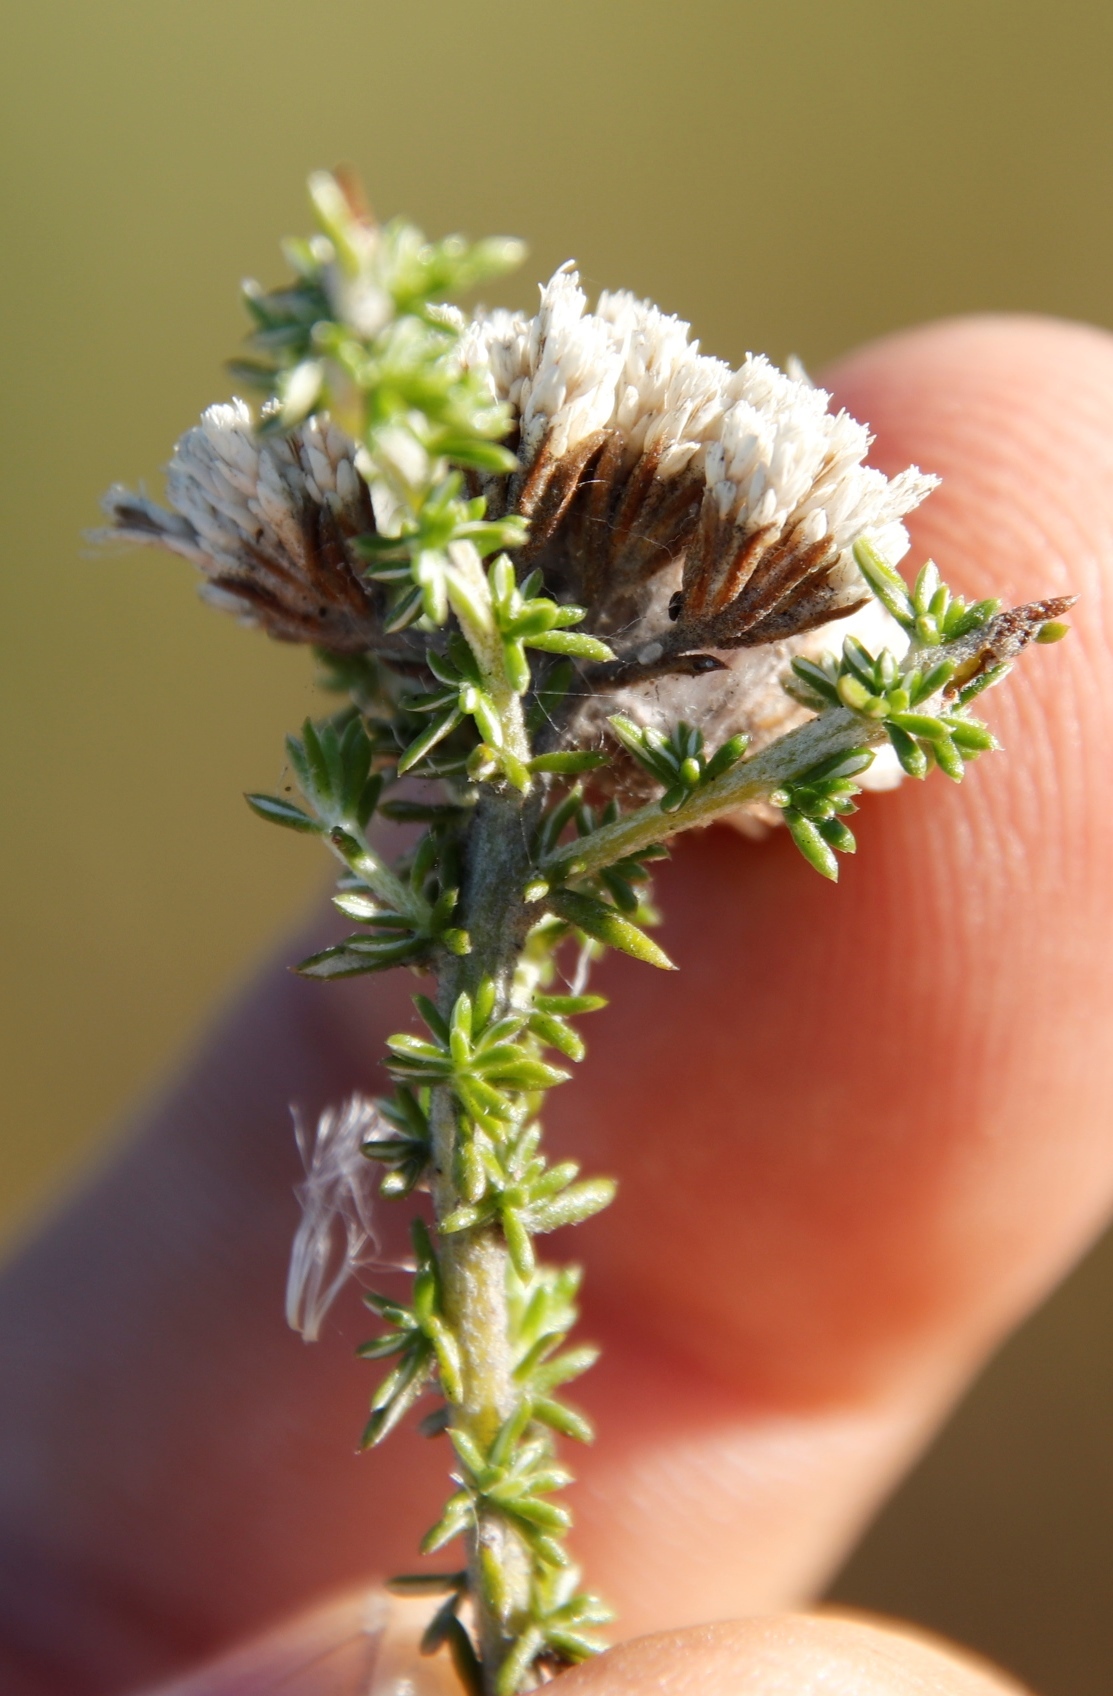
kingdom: Plantae
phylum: Tracheophyta
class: Magnoliopsida
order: Asterales
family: Asteraceae
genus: Metalasia
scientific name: Metalasia brevifolia
